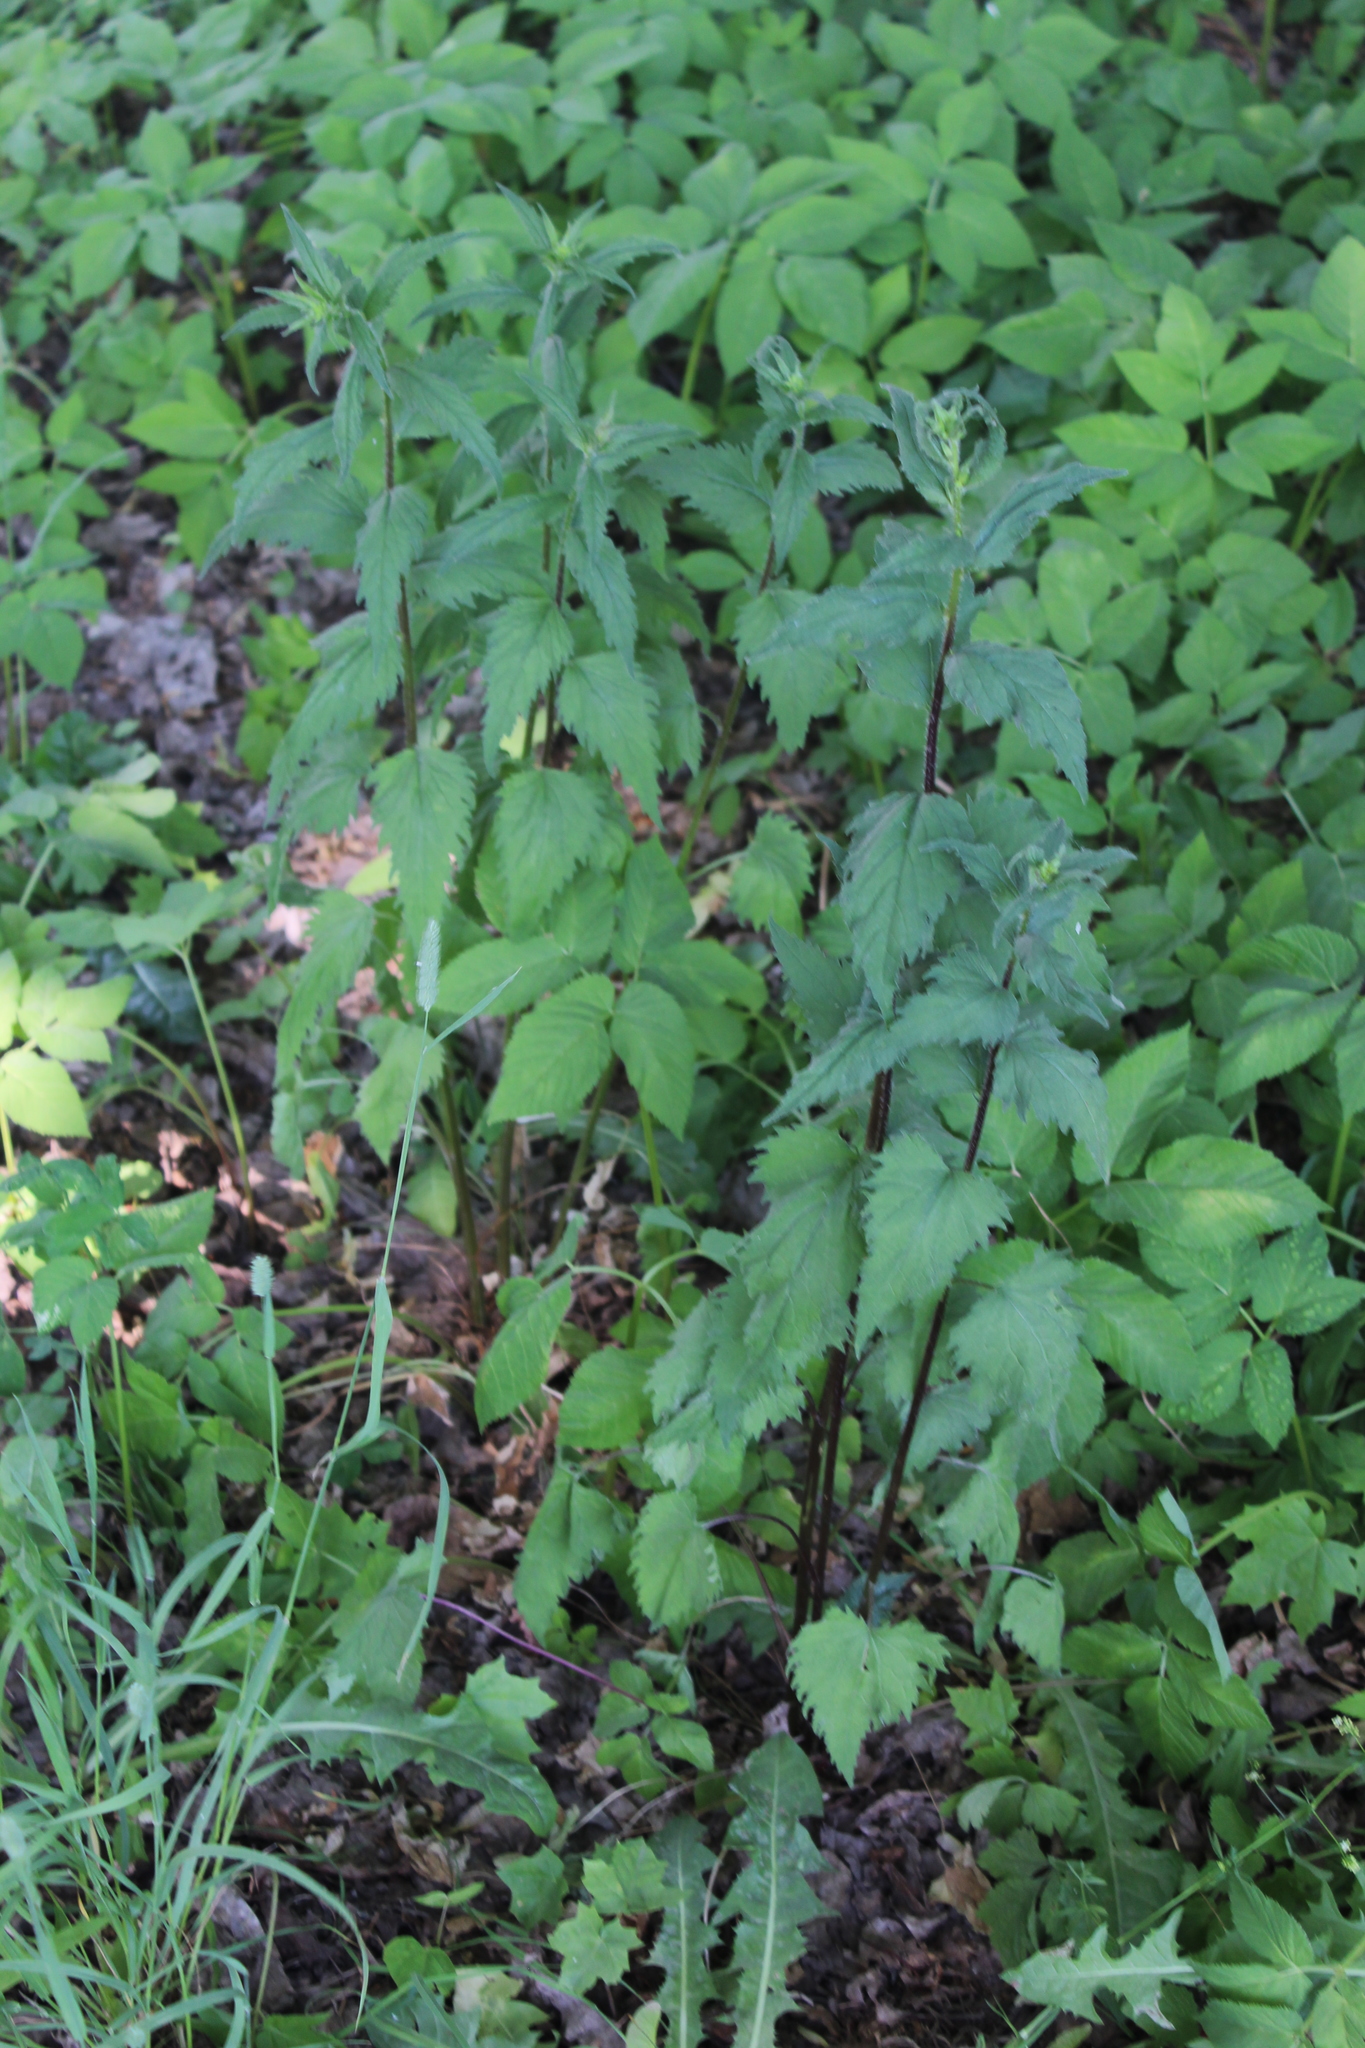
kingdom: Plantae
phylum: Tracheophyta
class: Magnoliopsida
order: Asterales
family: Campanulaceae
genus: Campanula
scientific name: Campanula trachelium
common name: Nettle-leaved bellflower
